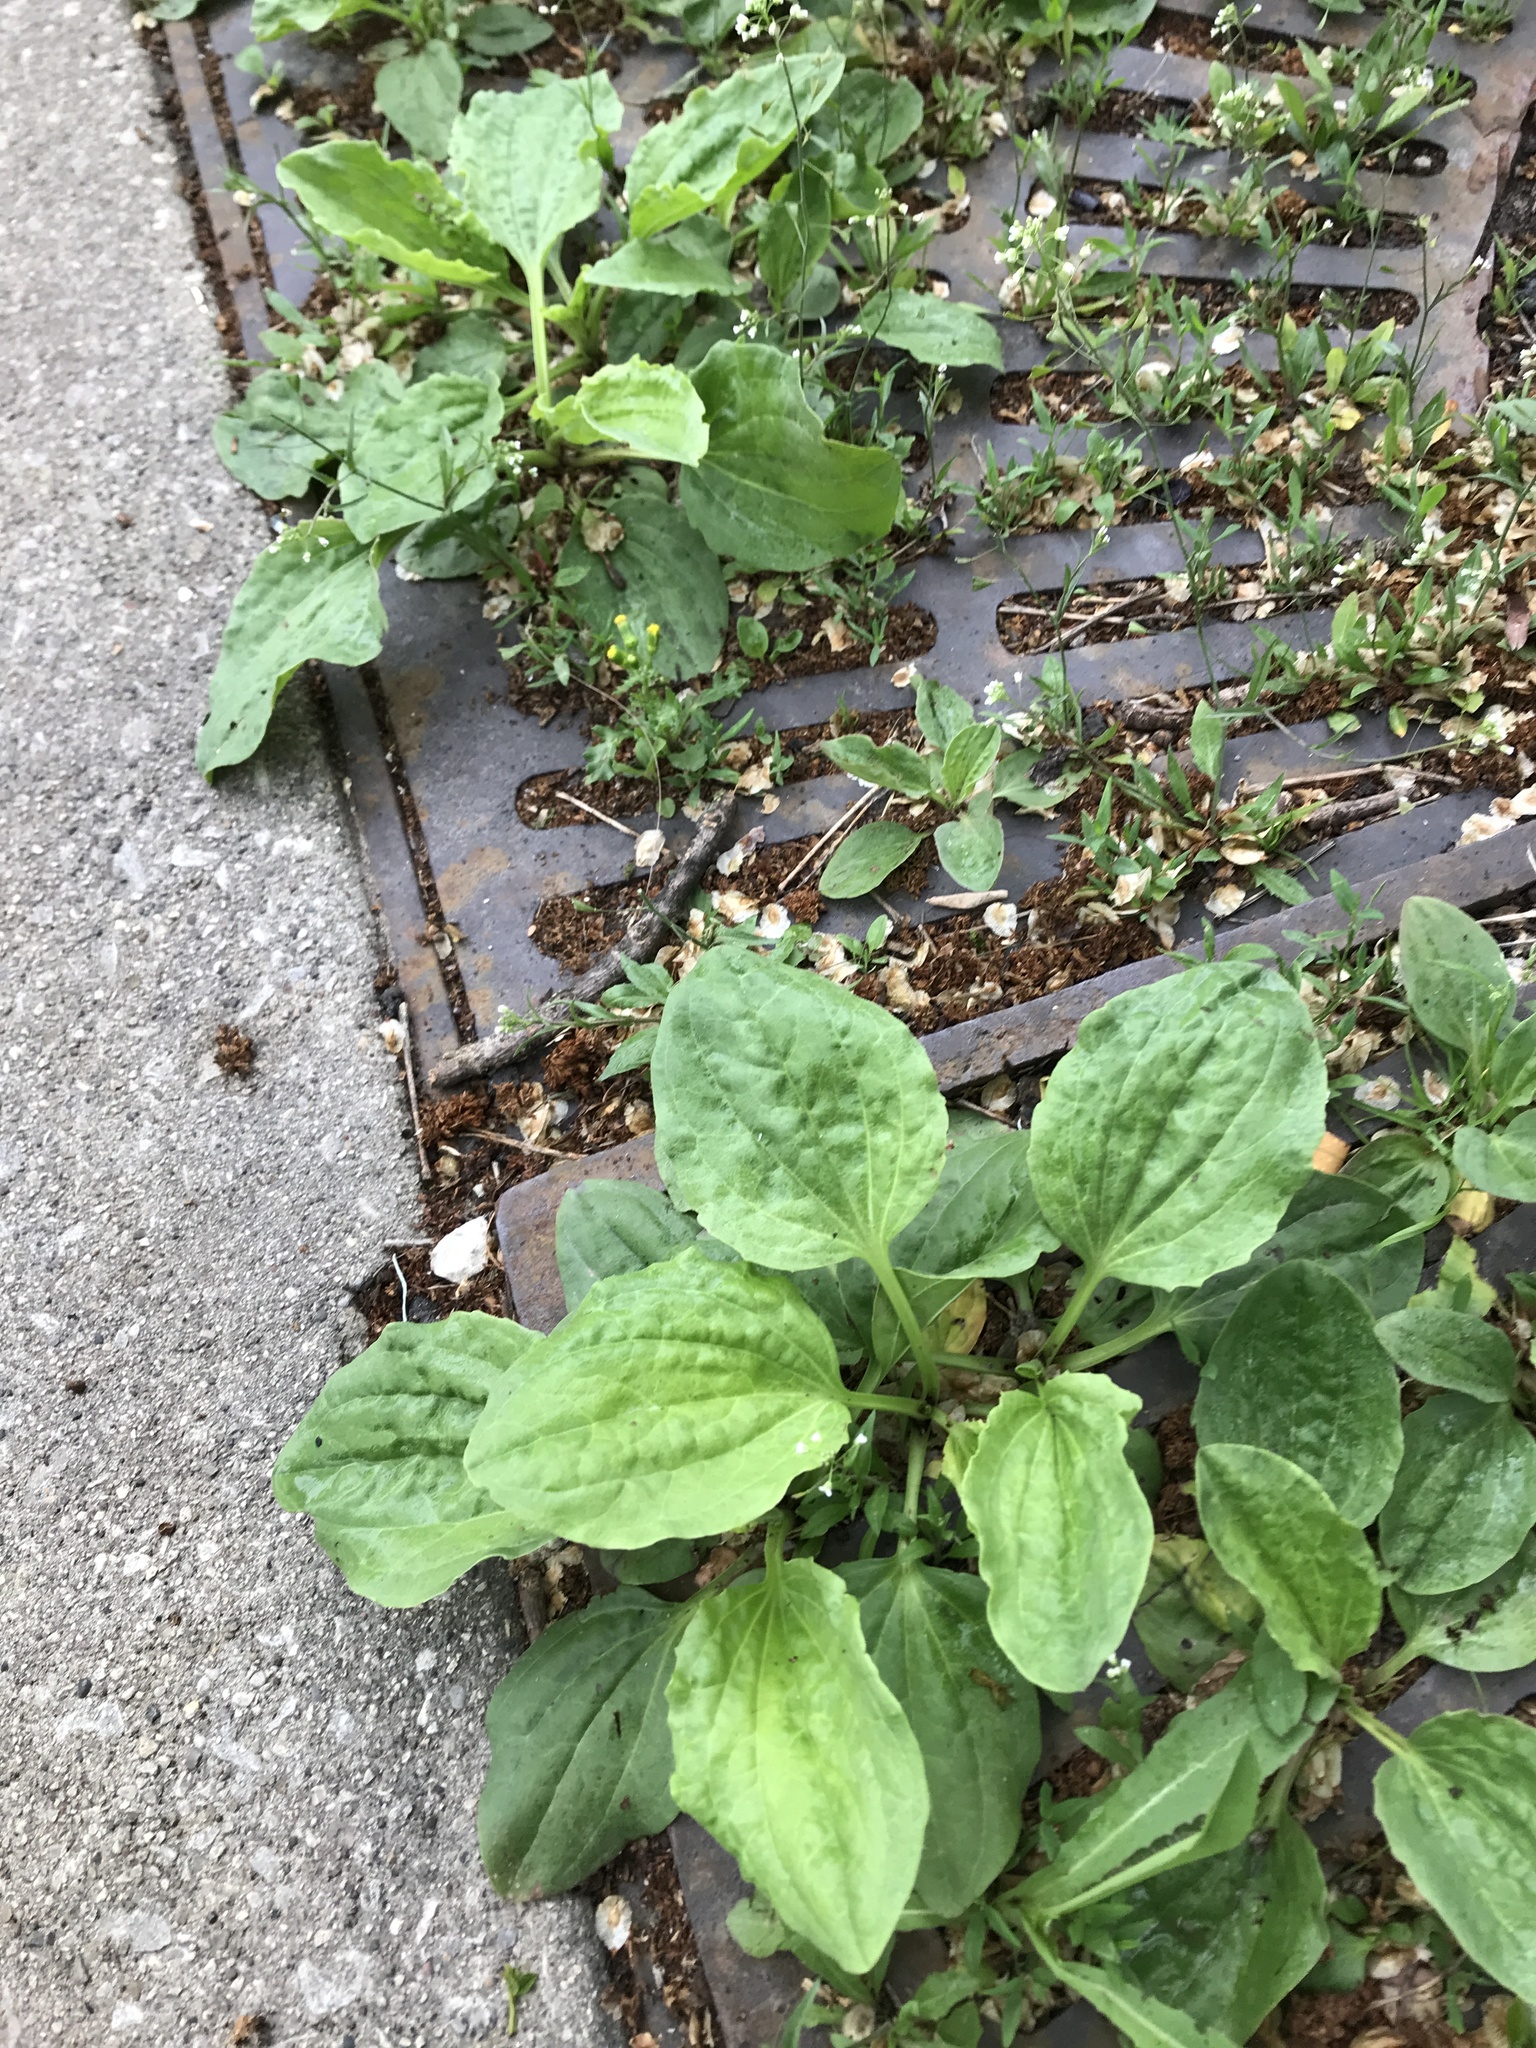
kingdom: Plantae
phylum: Tracheophyta
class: Magnoliopsida
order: Lamiales
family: Plantaginaceae
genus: Plantago
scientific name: Plantago major
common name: Common plantain
